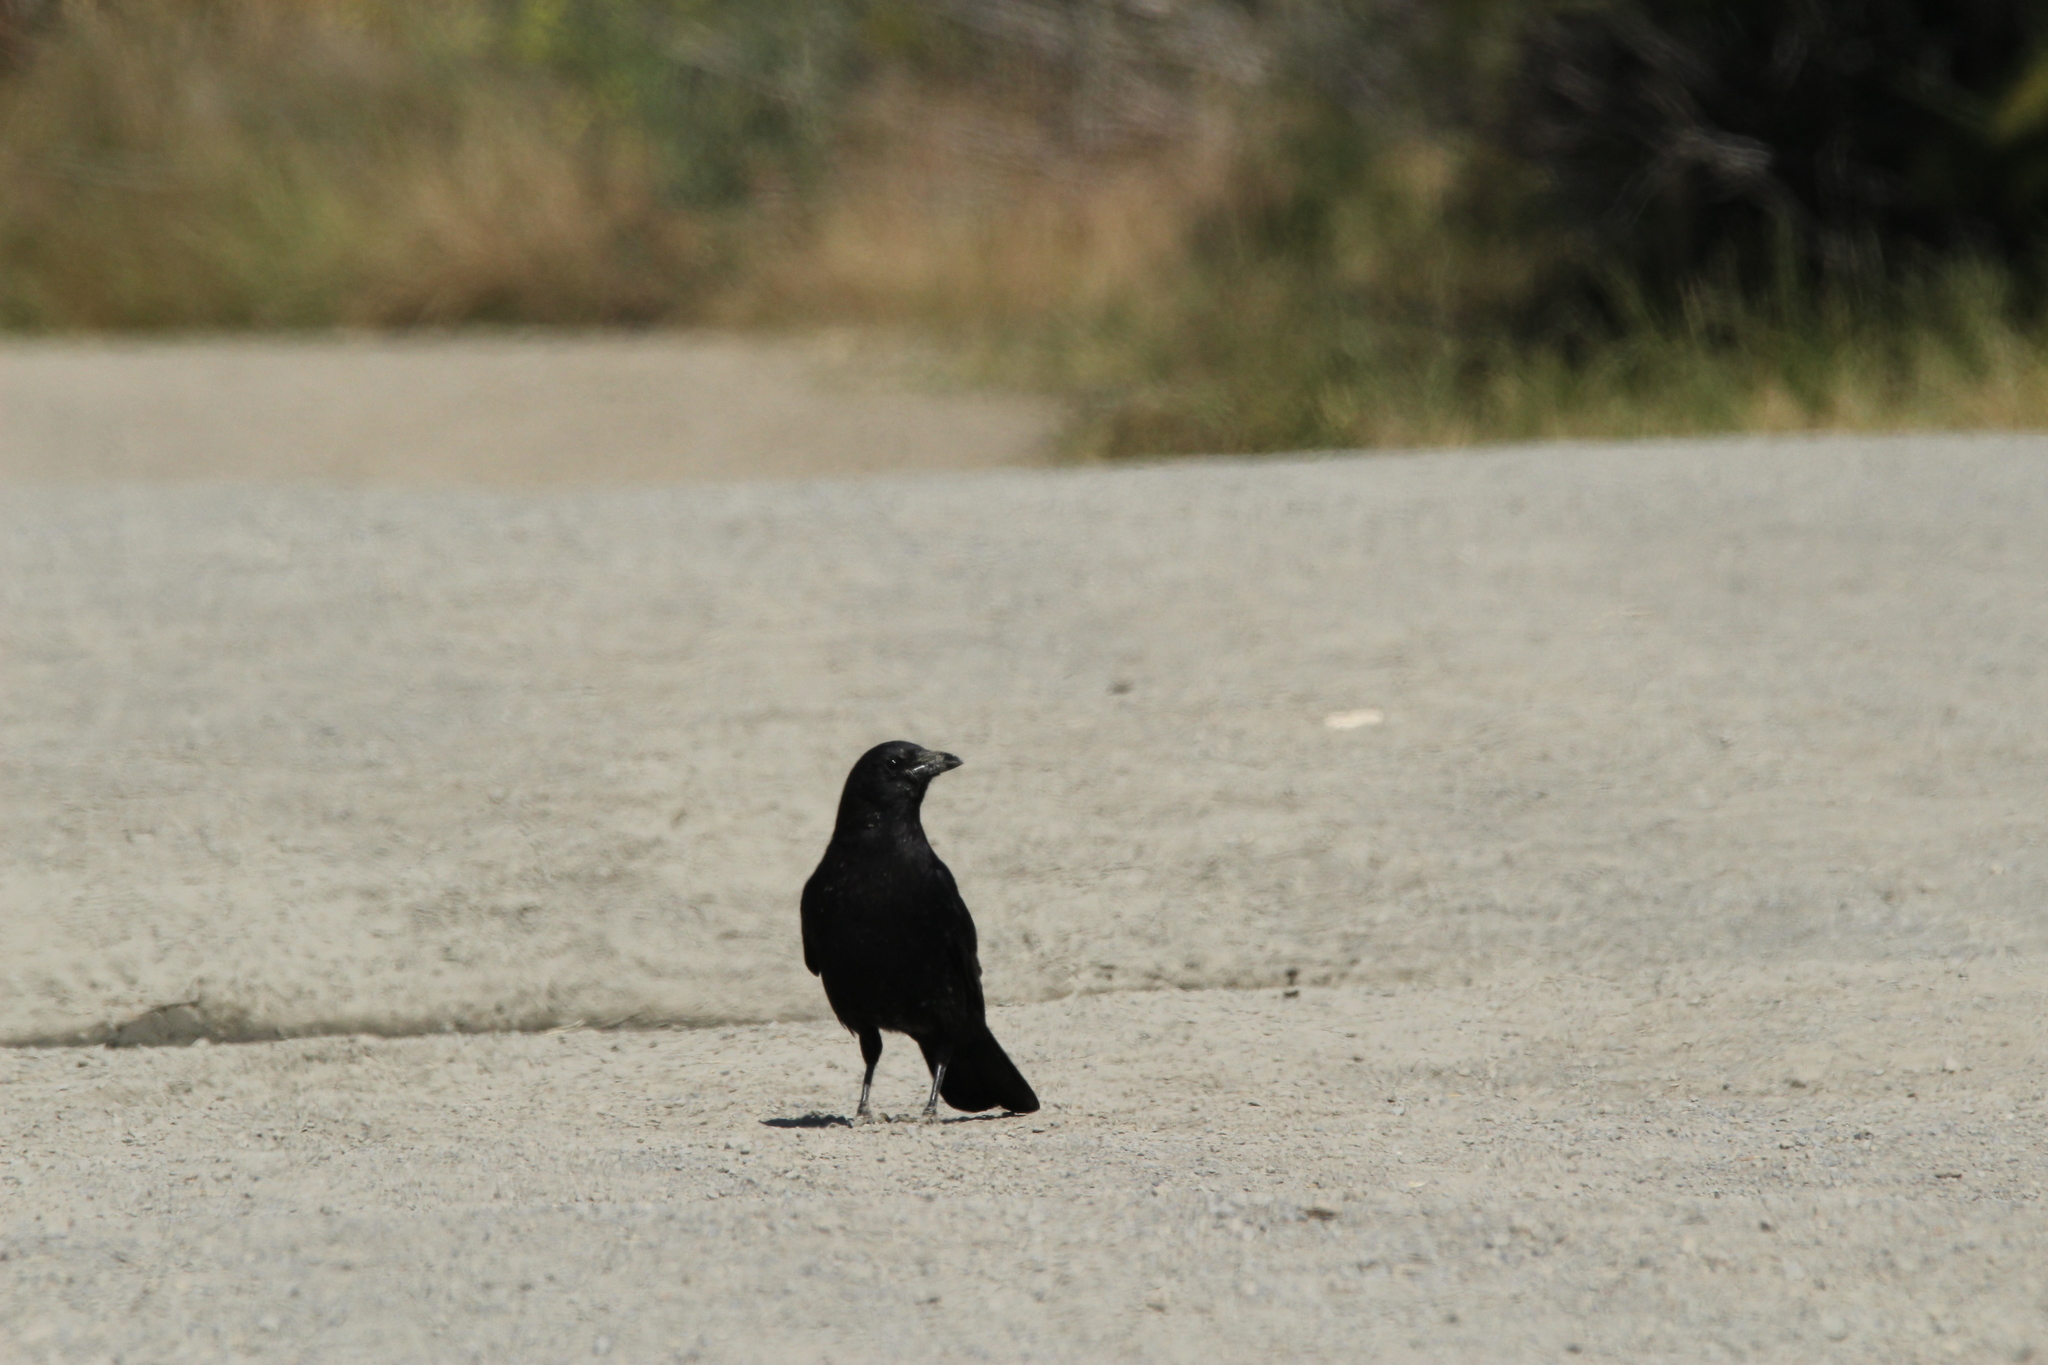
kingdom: Animalia
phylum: Chordata
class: Aves
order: Passeriformes
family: Corvidae
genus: Corvus
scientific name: Corvus brachyrhynchos
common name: American crow
